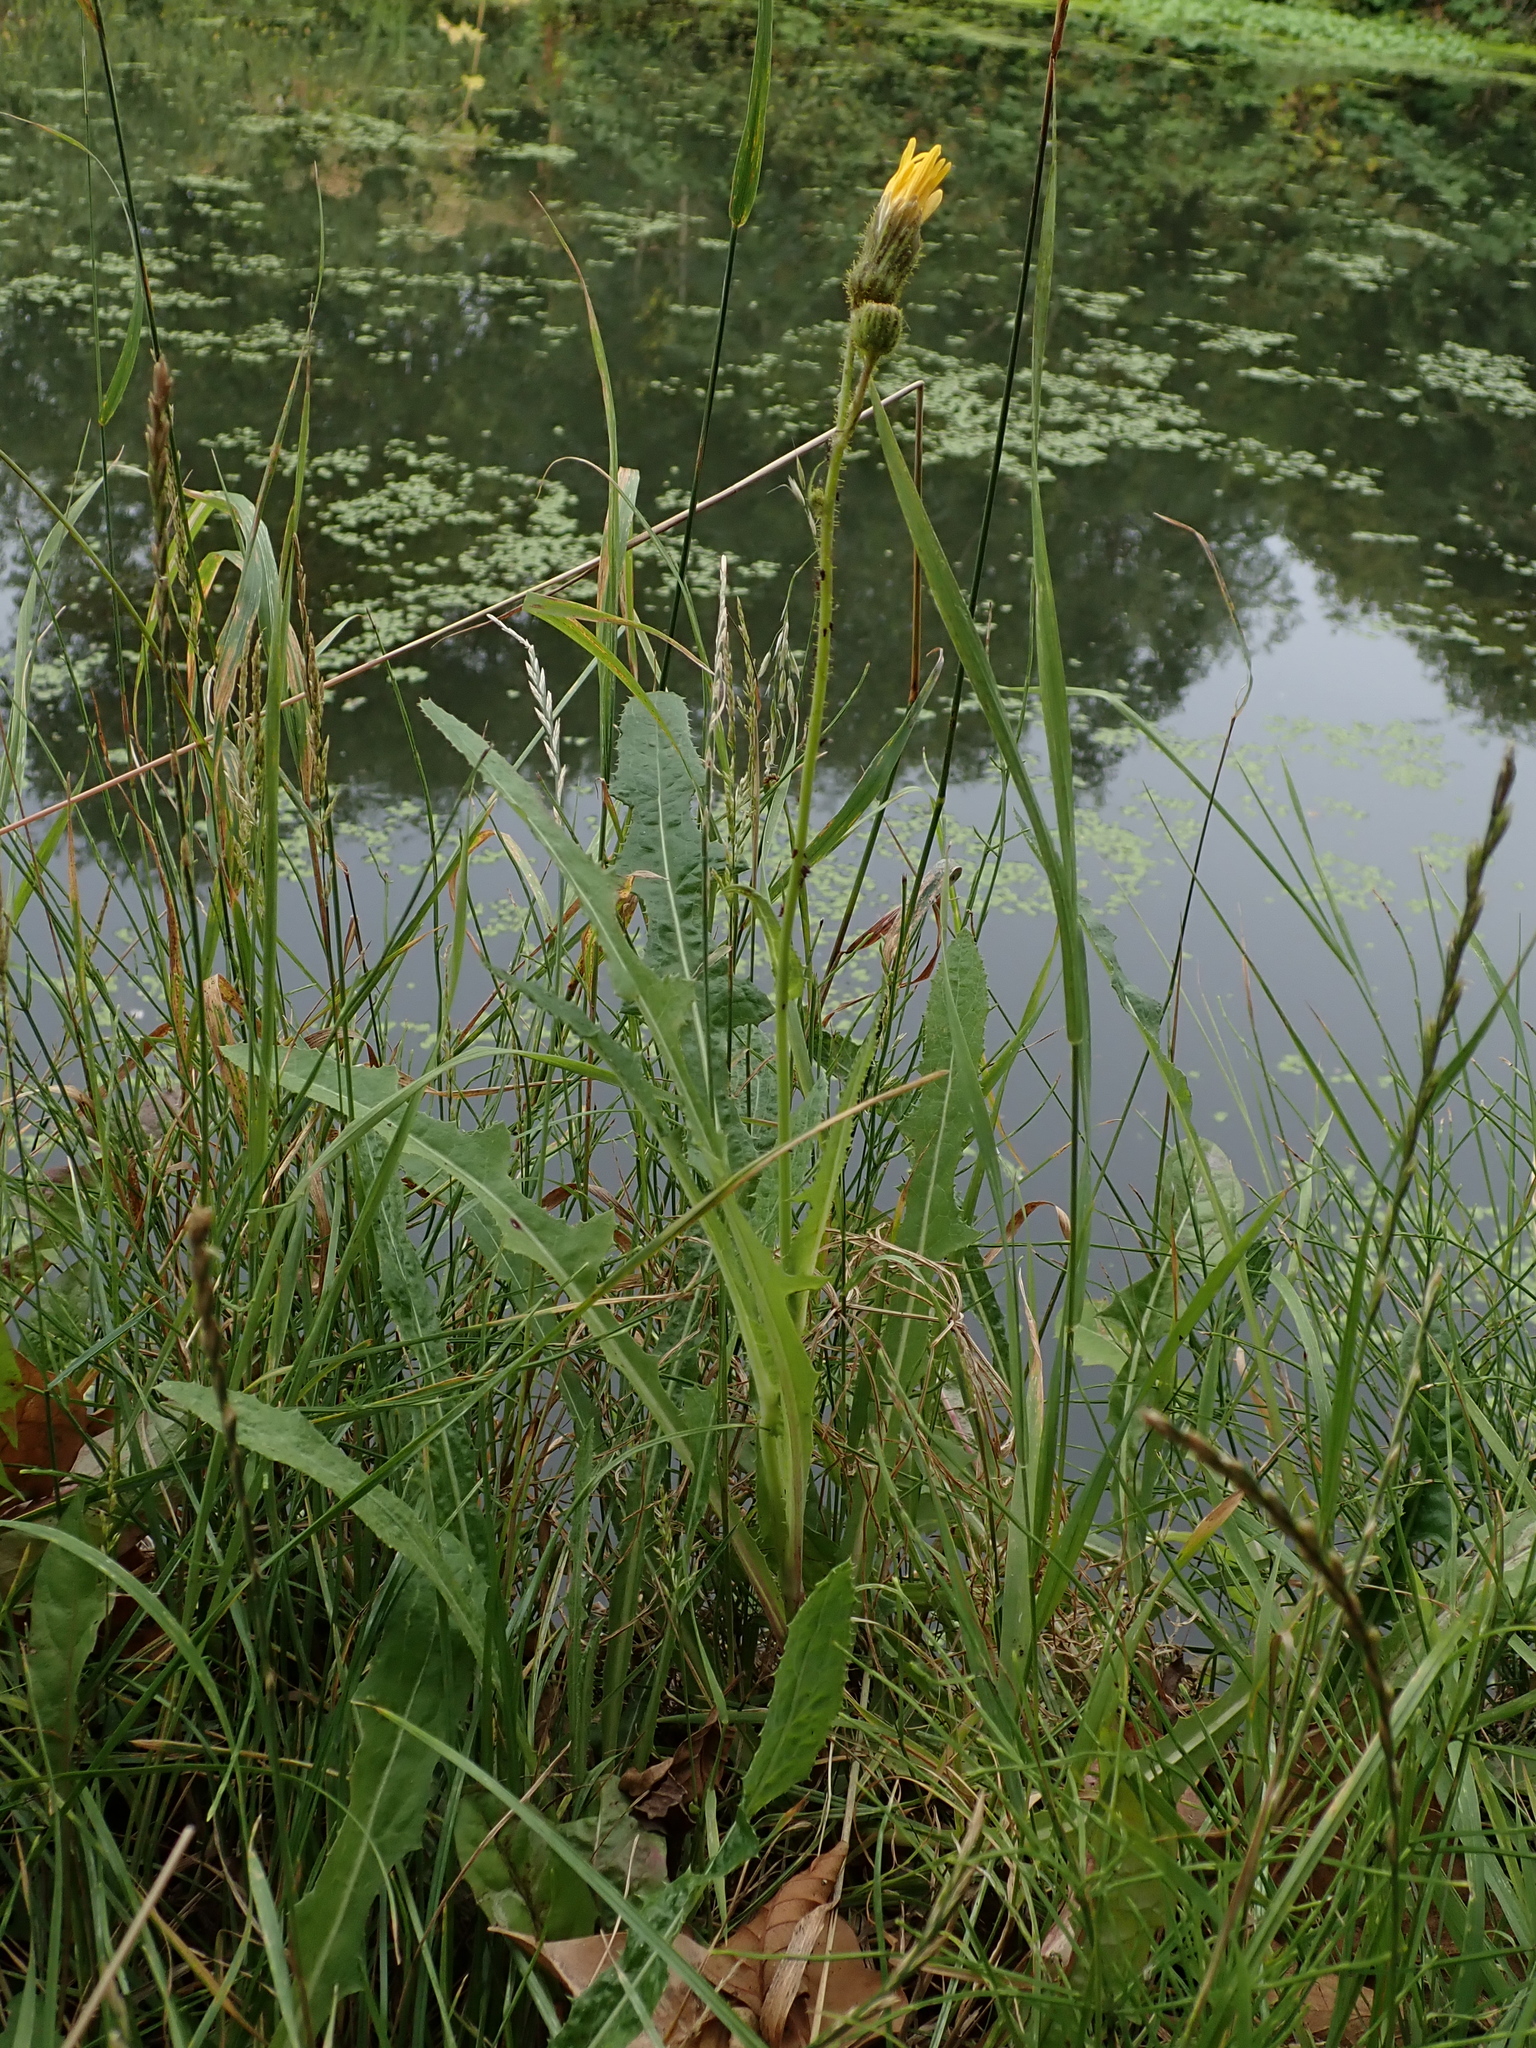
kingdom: Plantae
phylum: Tracheophyta
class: Magnoliopsida
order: Asterales
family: Asteraceae
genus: Sonchus
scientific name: Sonchus arvensis
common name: Perennial sow-thistle
